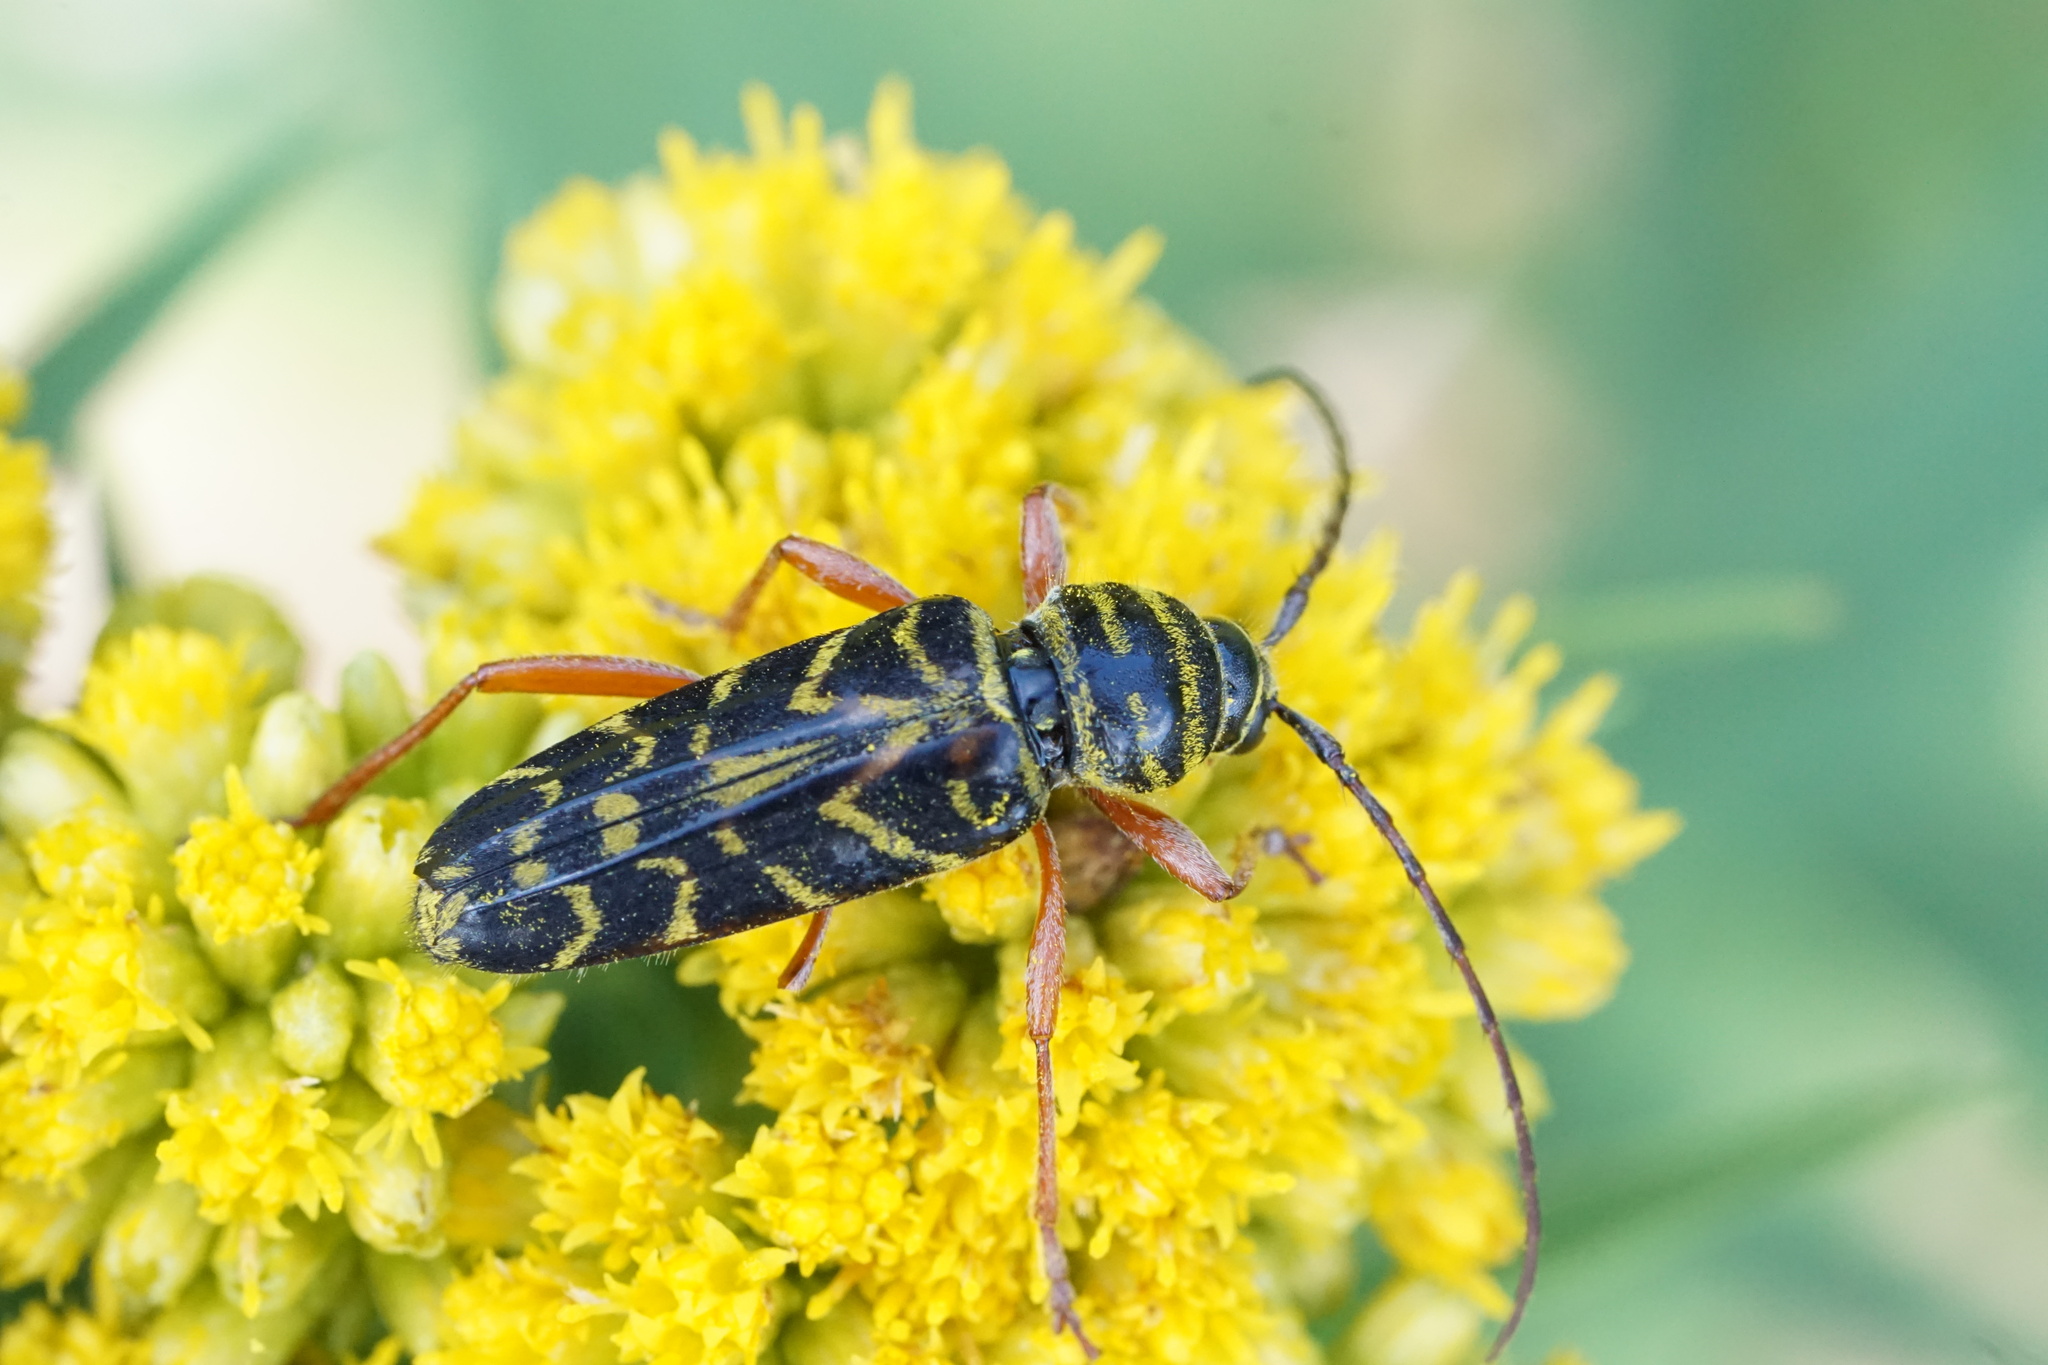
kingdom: Animalia
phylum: Arthropoda
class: Insecta
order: Coleoptera
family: Cerambycidae
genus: Megacyllene
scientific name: Megacyllene robiniae
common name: Locust borer
